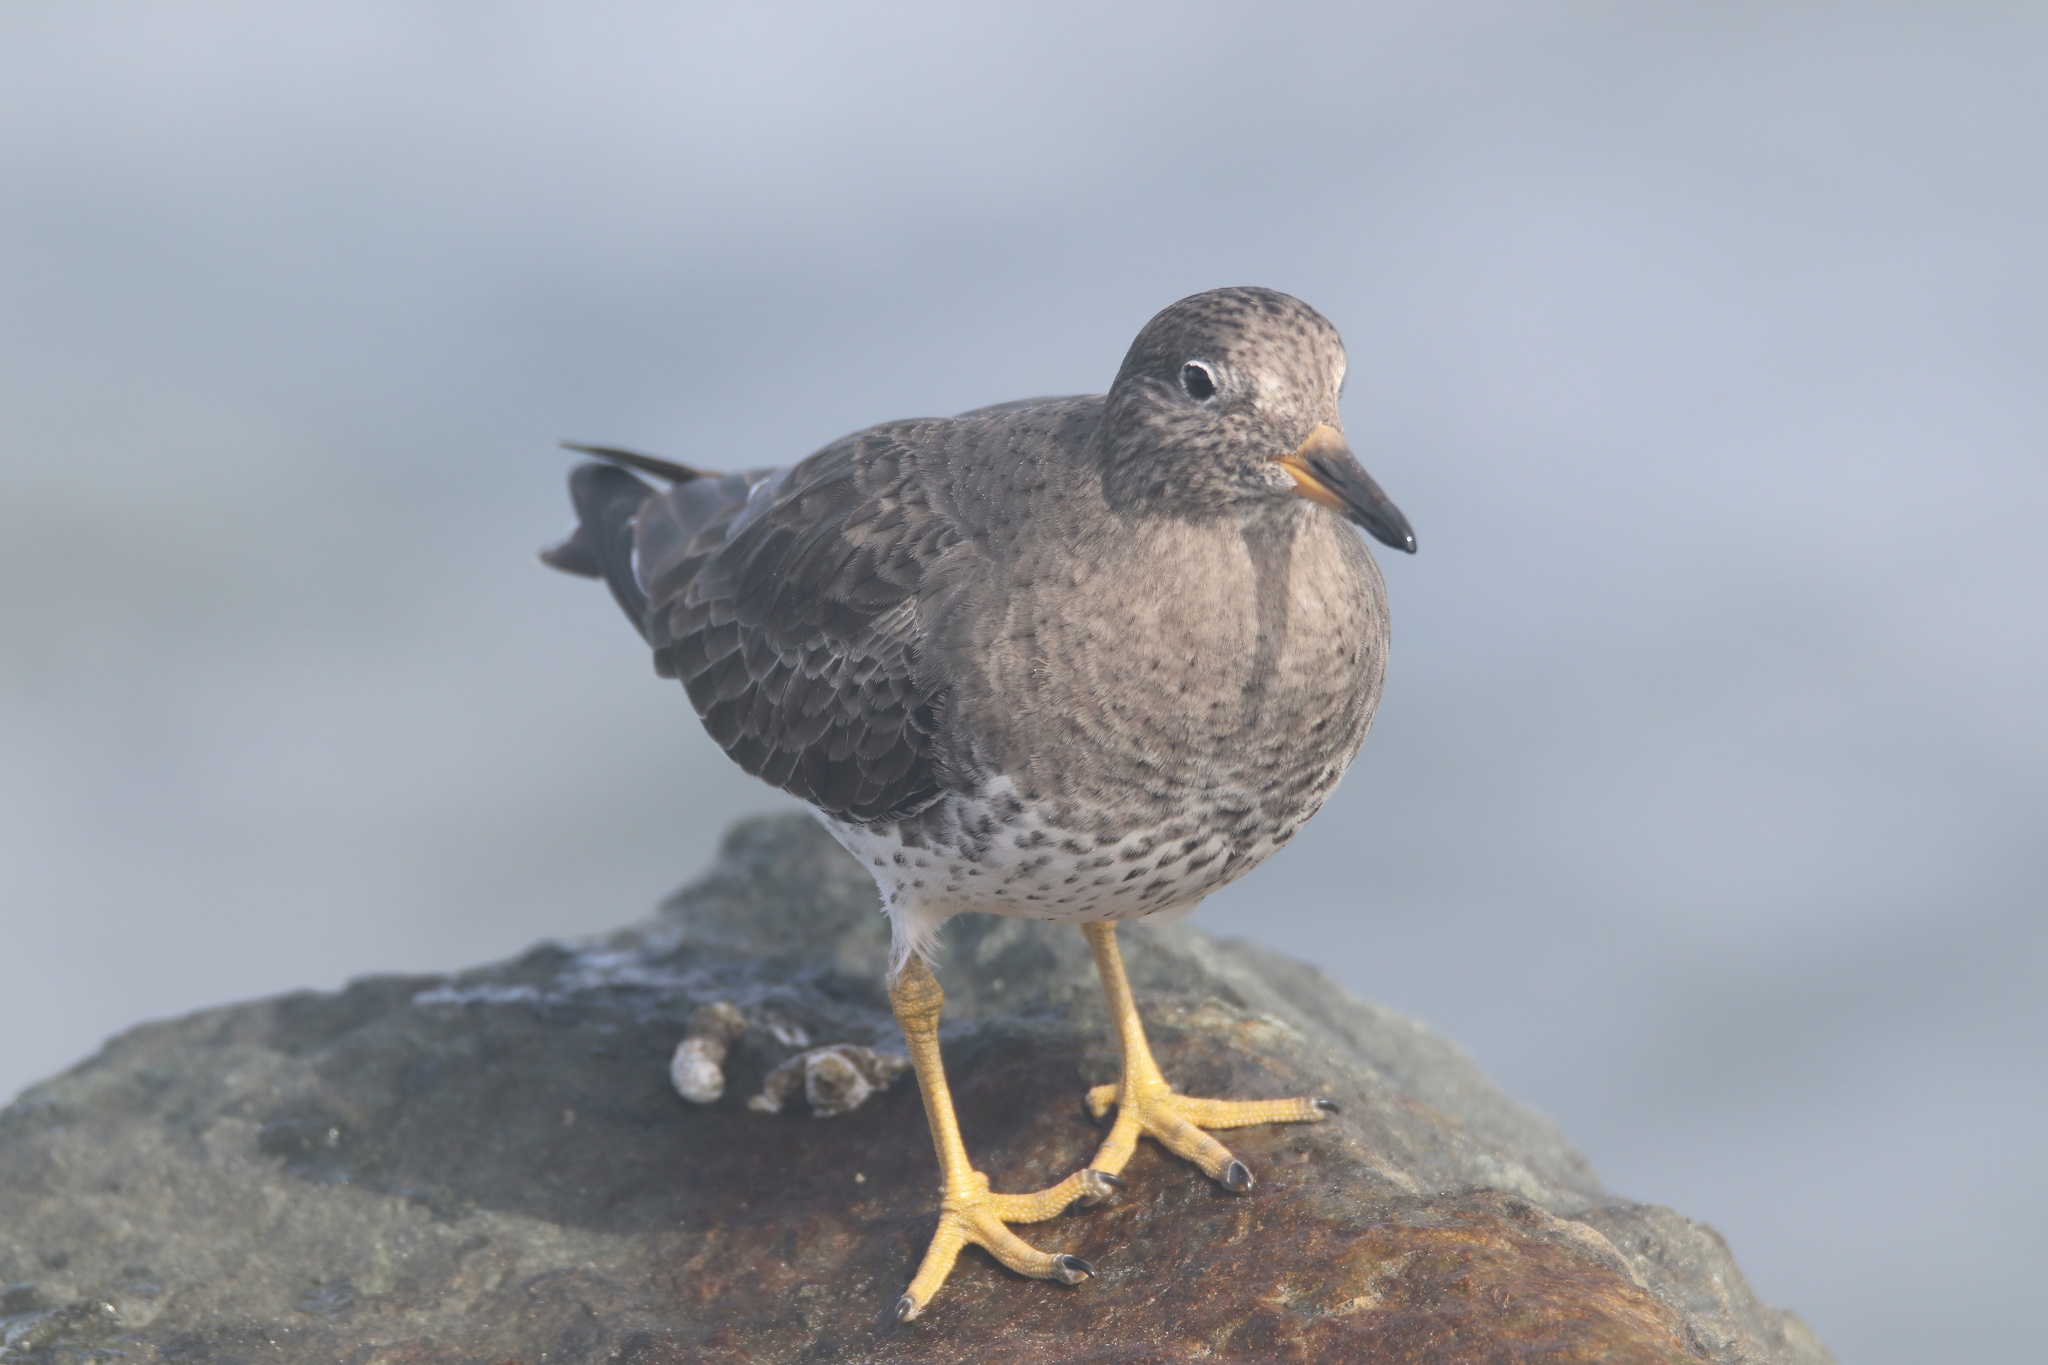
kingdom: Animalia
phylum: Chordata
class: Aves
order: Charadriiformes
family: Scolopacidae
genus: Calidris
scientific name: Calidris virgata
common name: Surfbird
